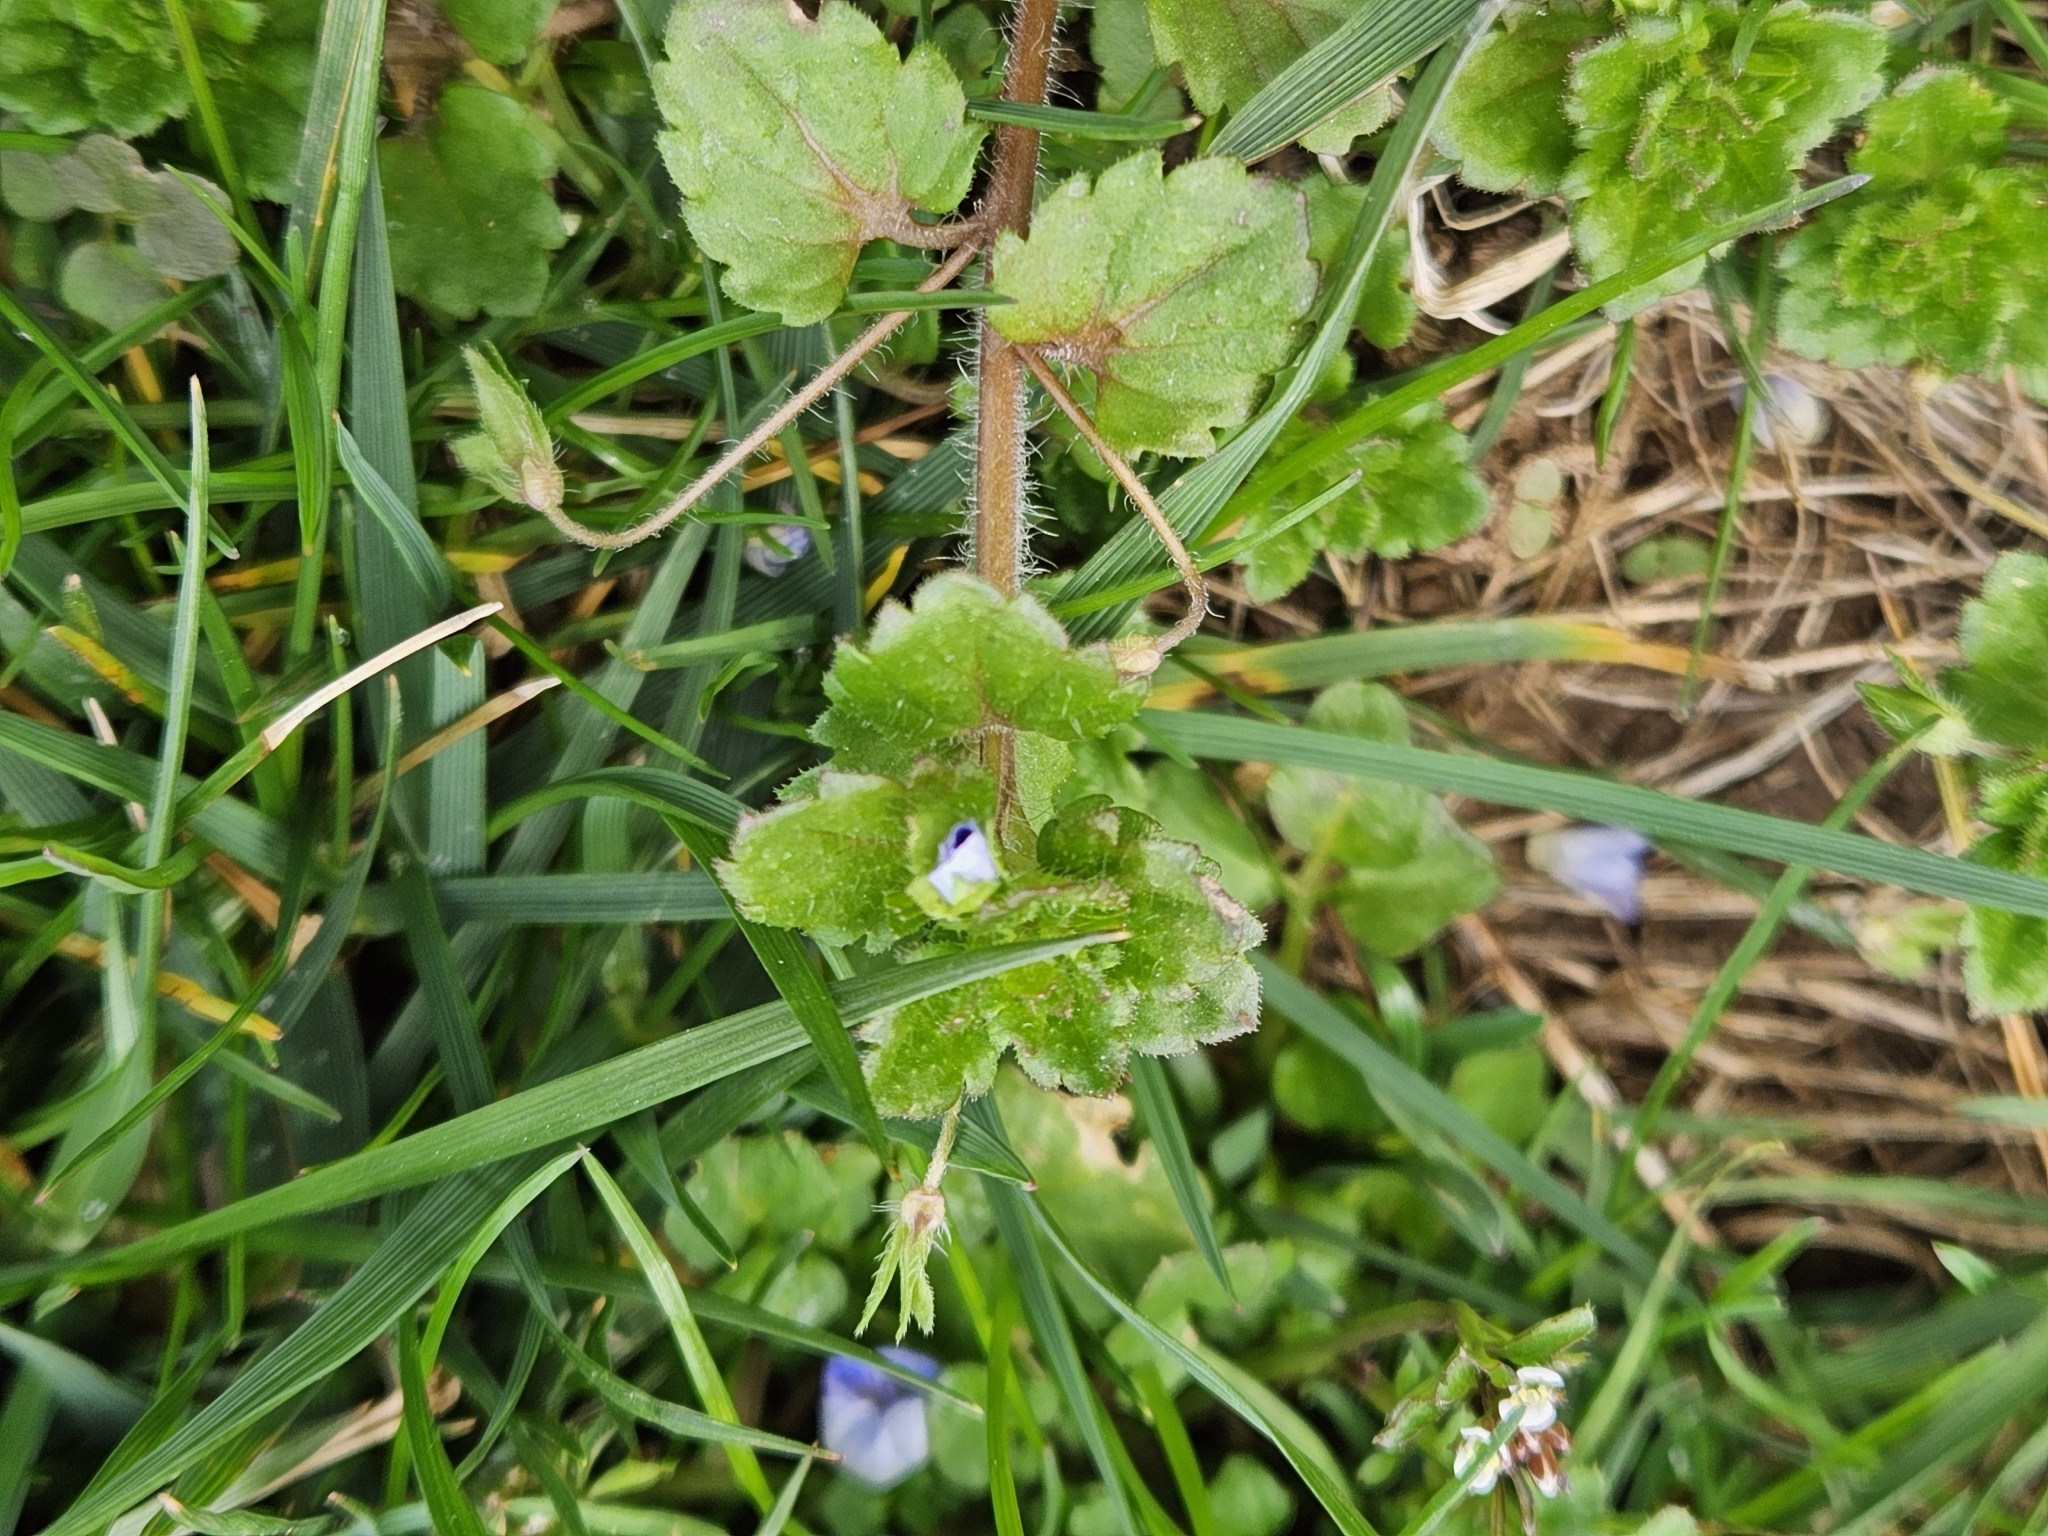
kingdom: Plantae
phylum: Tracheophyta
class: Magnoliopsida
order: Lamiales
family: Plantaginaceae
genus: Veronica
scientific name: Veronica persica
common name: Common field-speedwell
